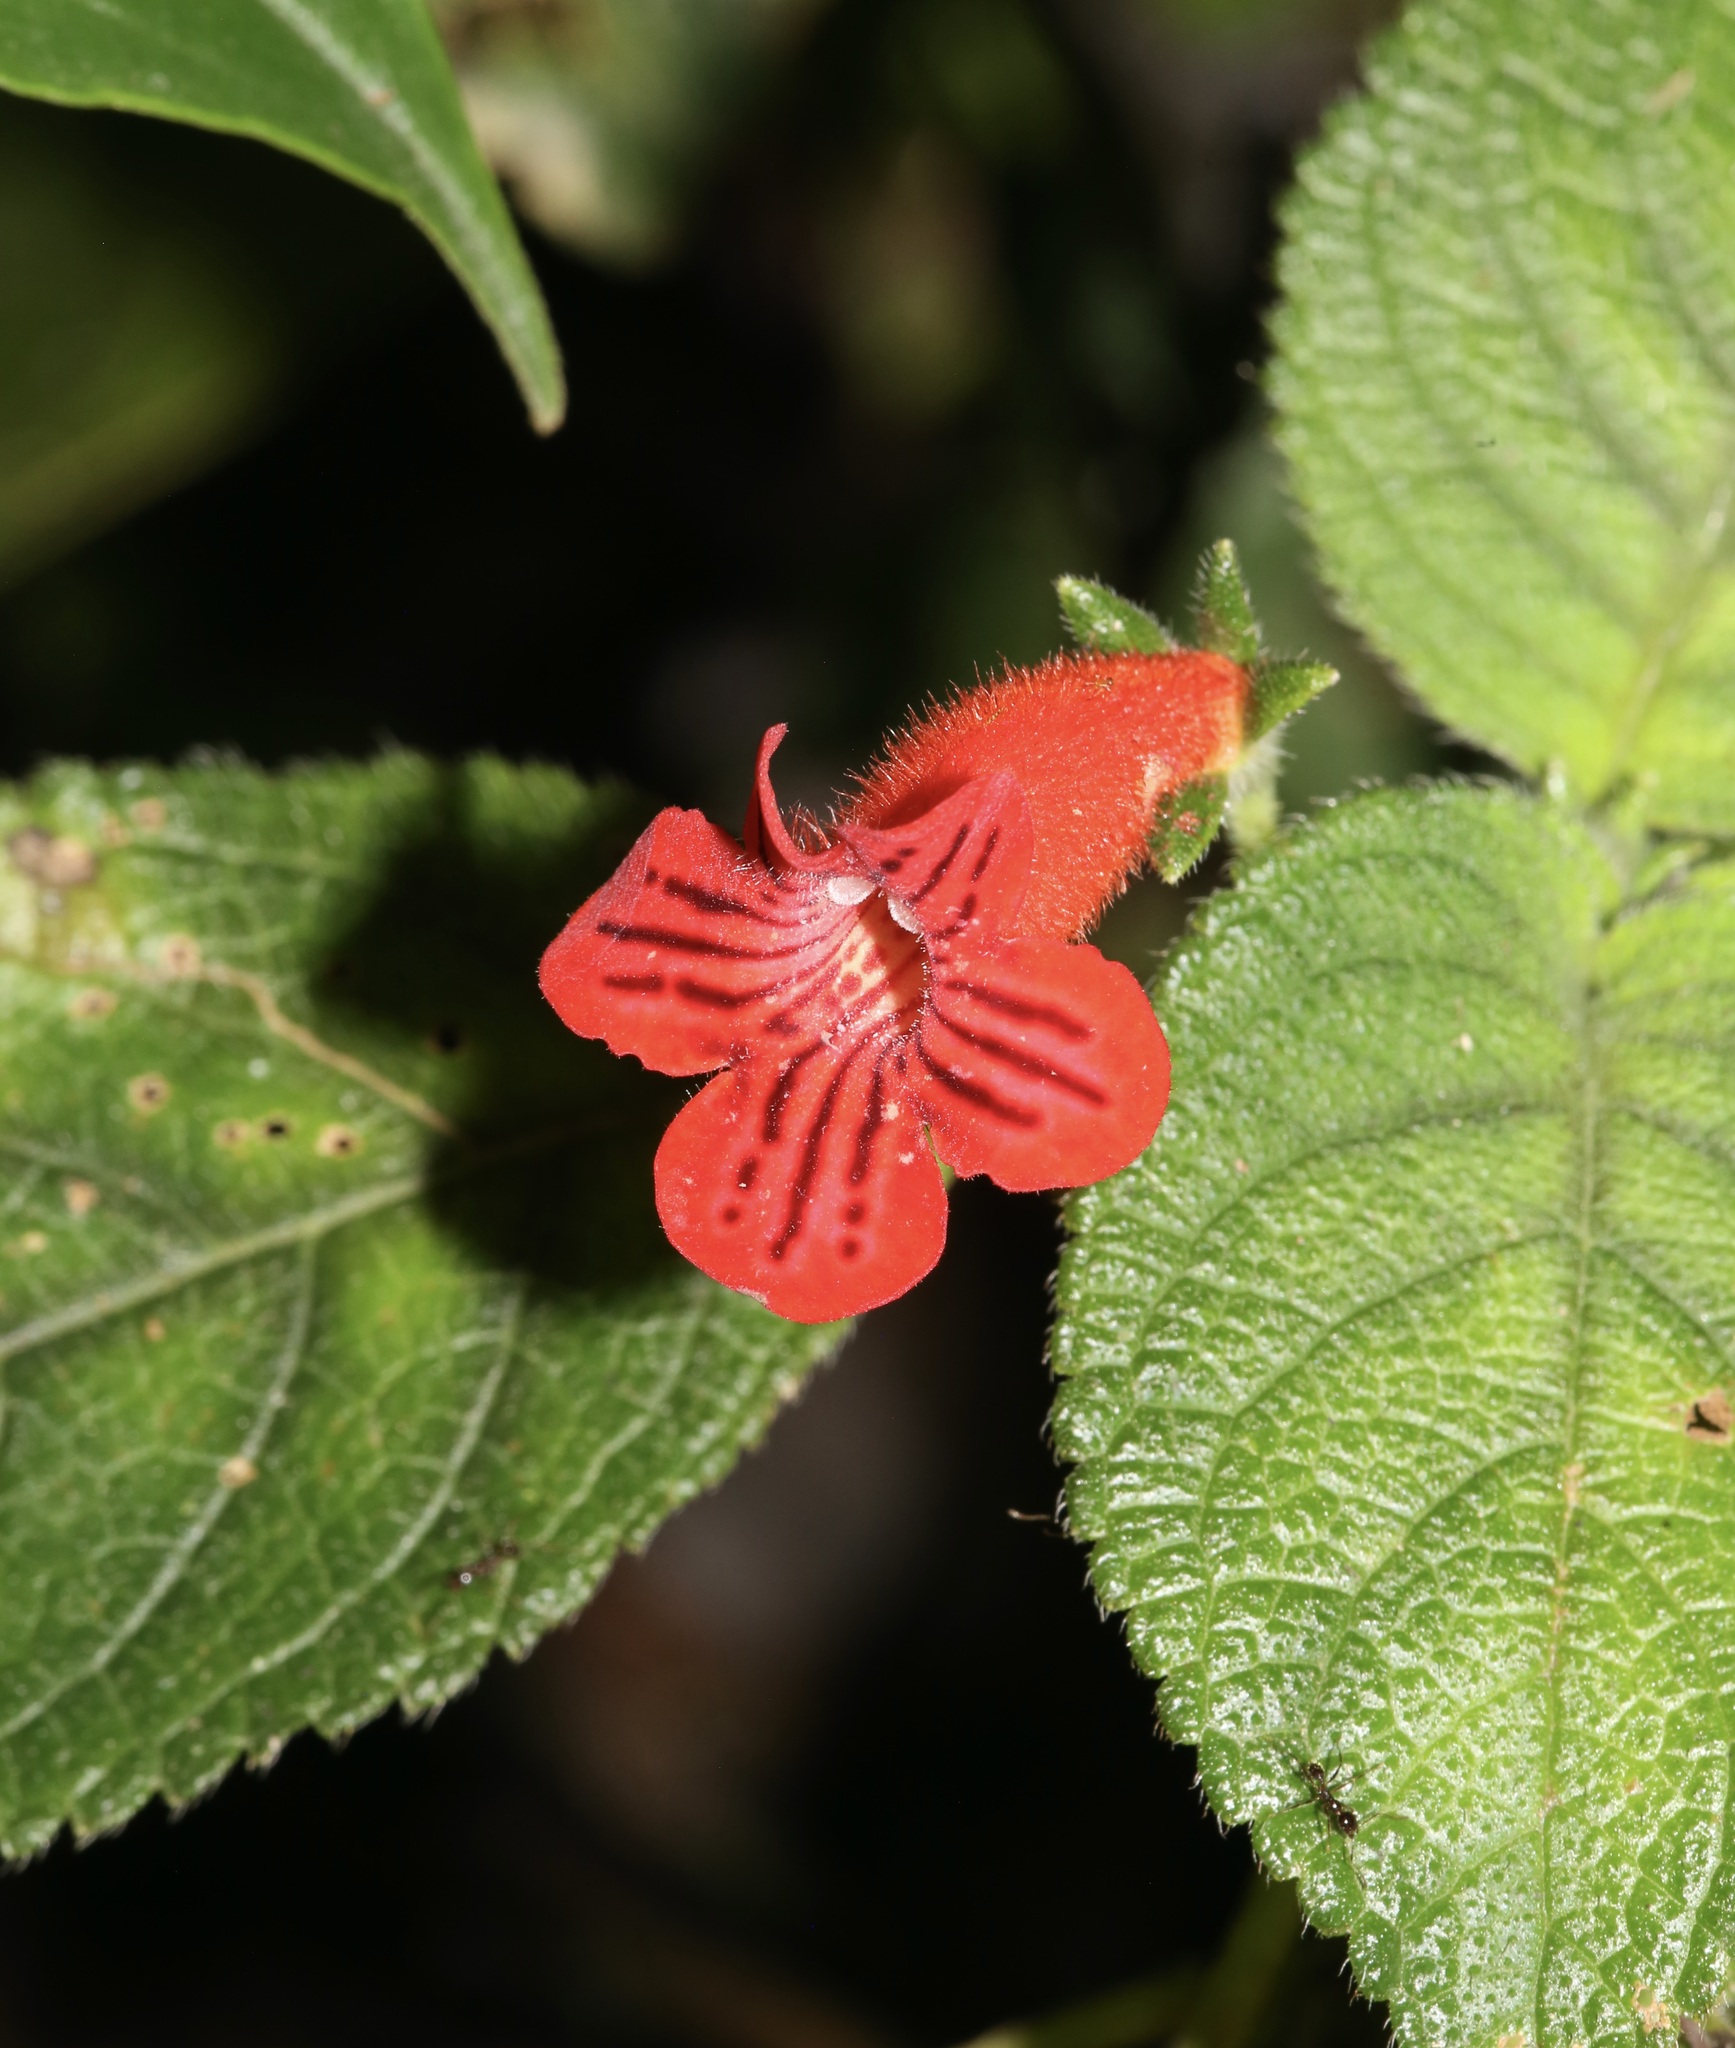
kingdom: Plantae
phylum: Tracheophyta
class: Magnoliopsida
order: Lamiales
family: Gesneriaceae
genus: Kohleria
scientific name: Kohleria inaequalis
